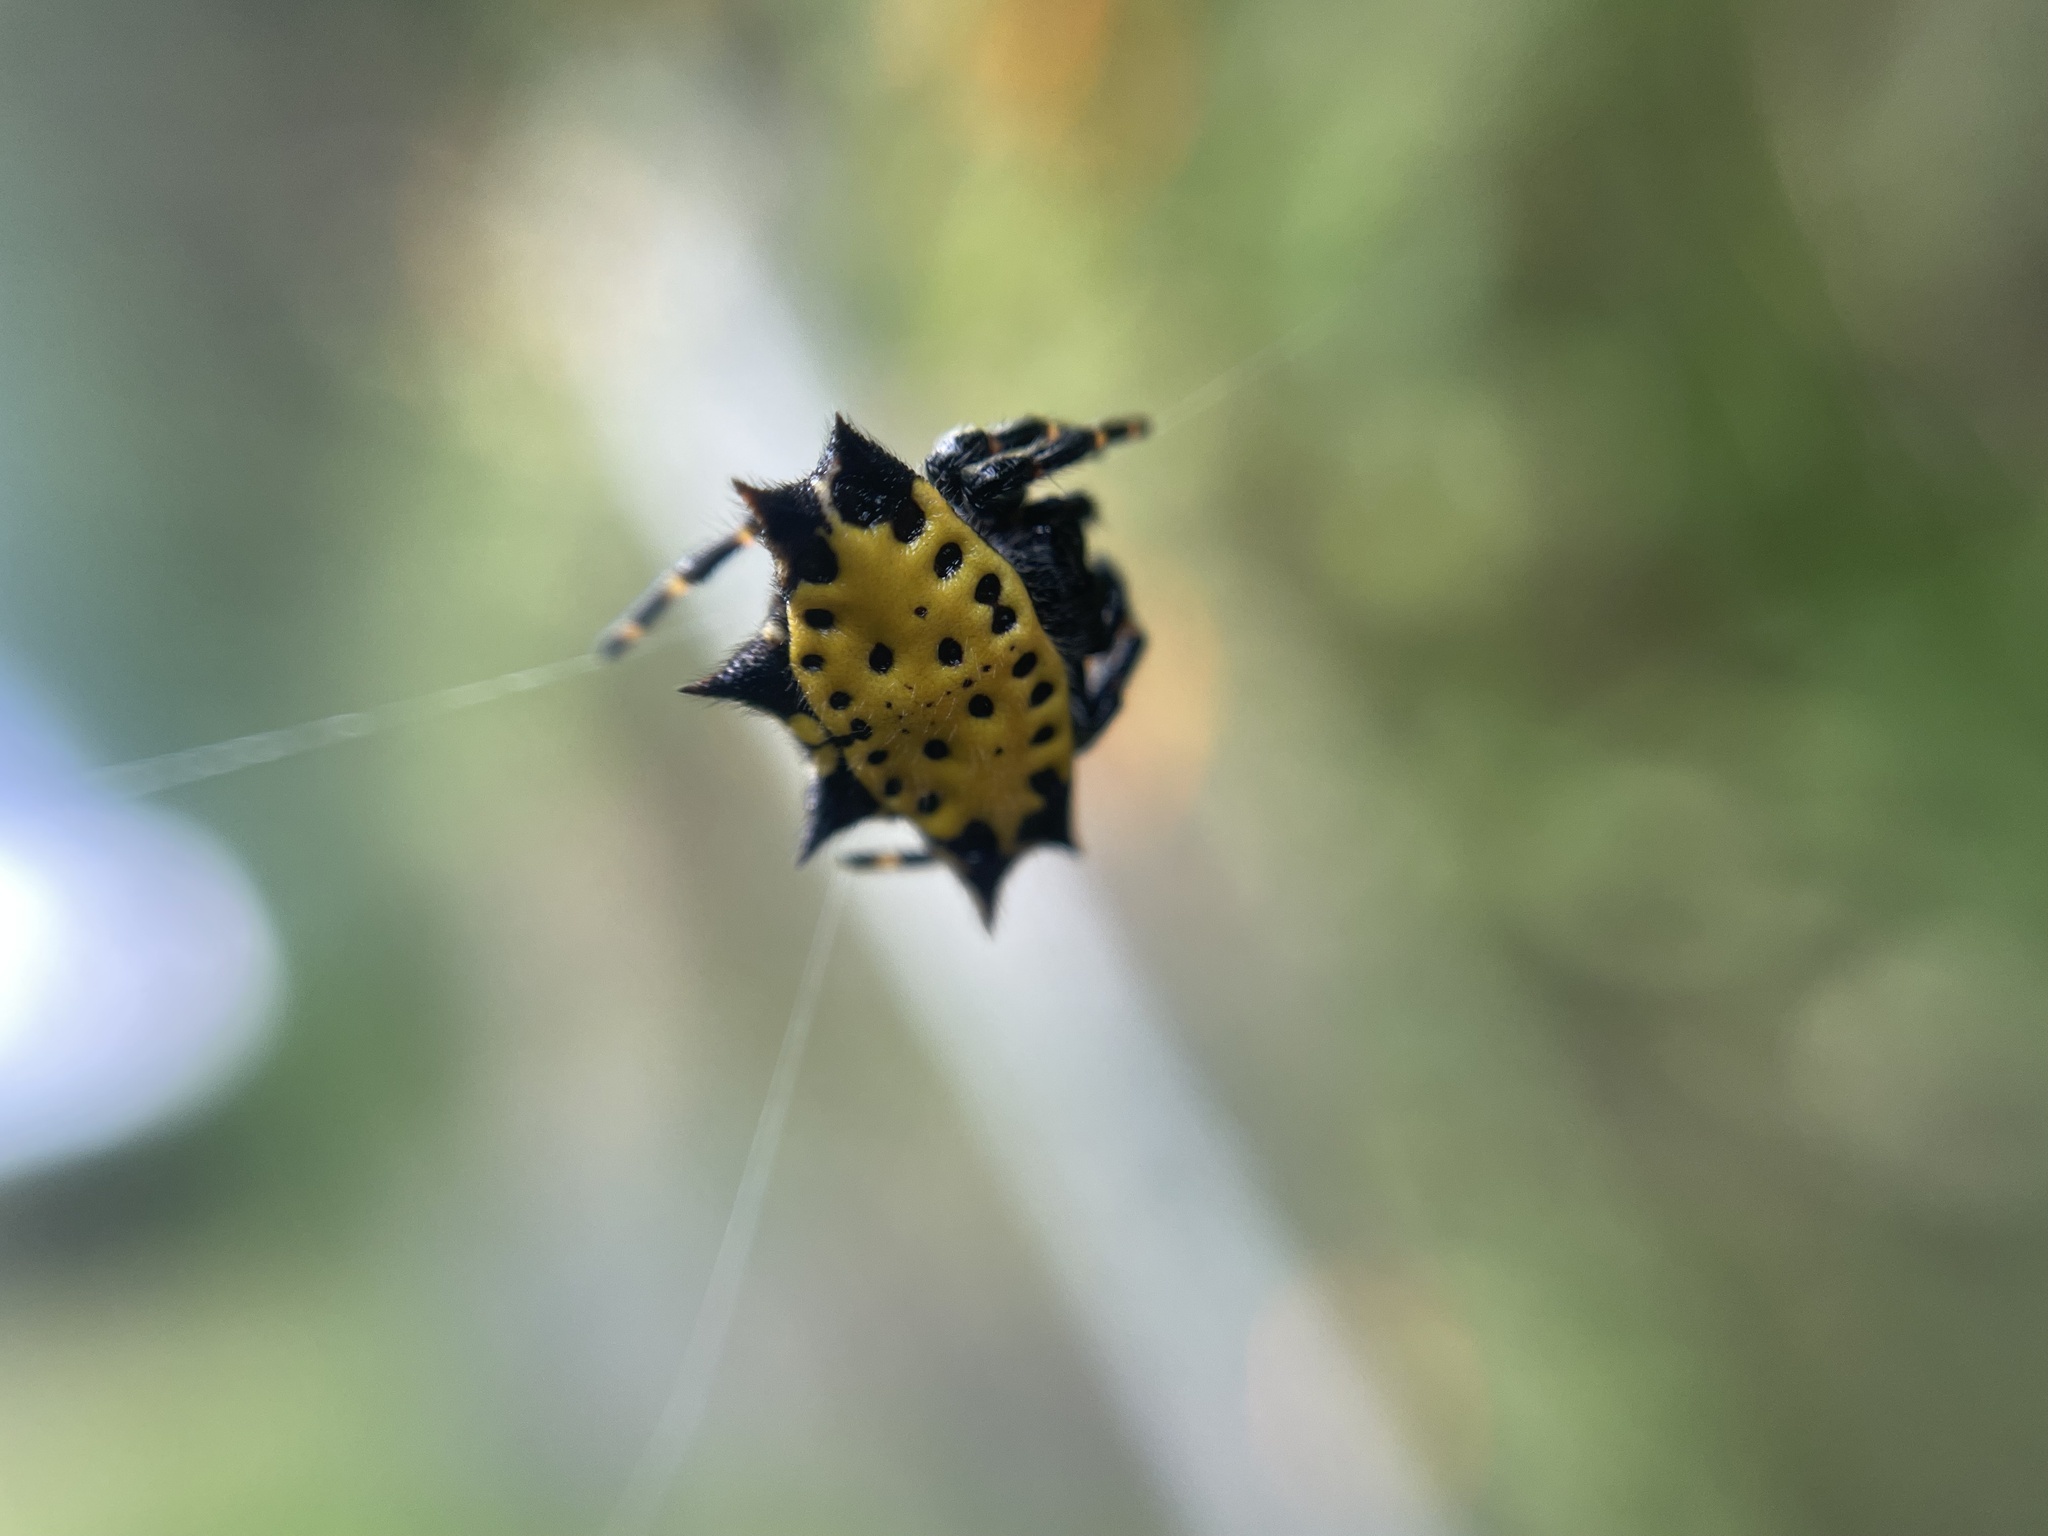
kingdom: Animalia
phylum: Arthropoda
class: Arachnida
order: Araneae
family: Araneidae
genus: Gasteracantha
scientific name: Gasteracantha cancriformis
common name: Orb weavers
